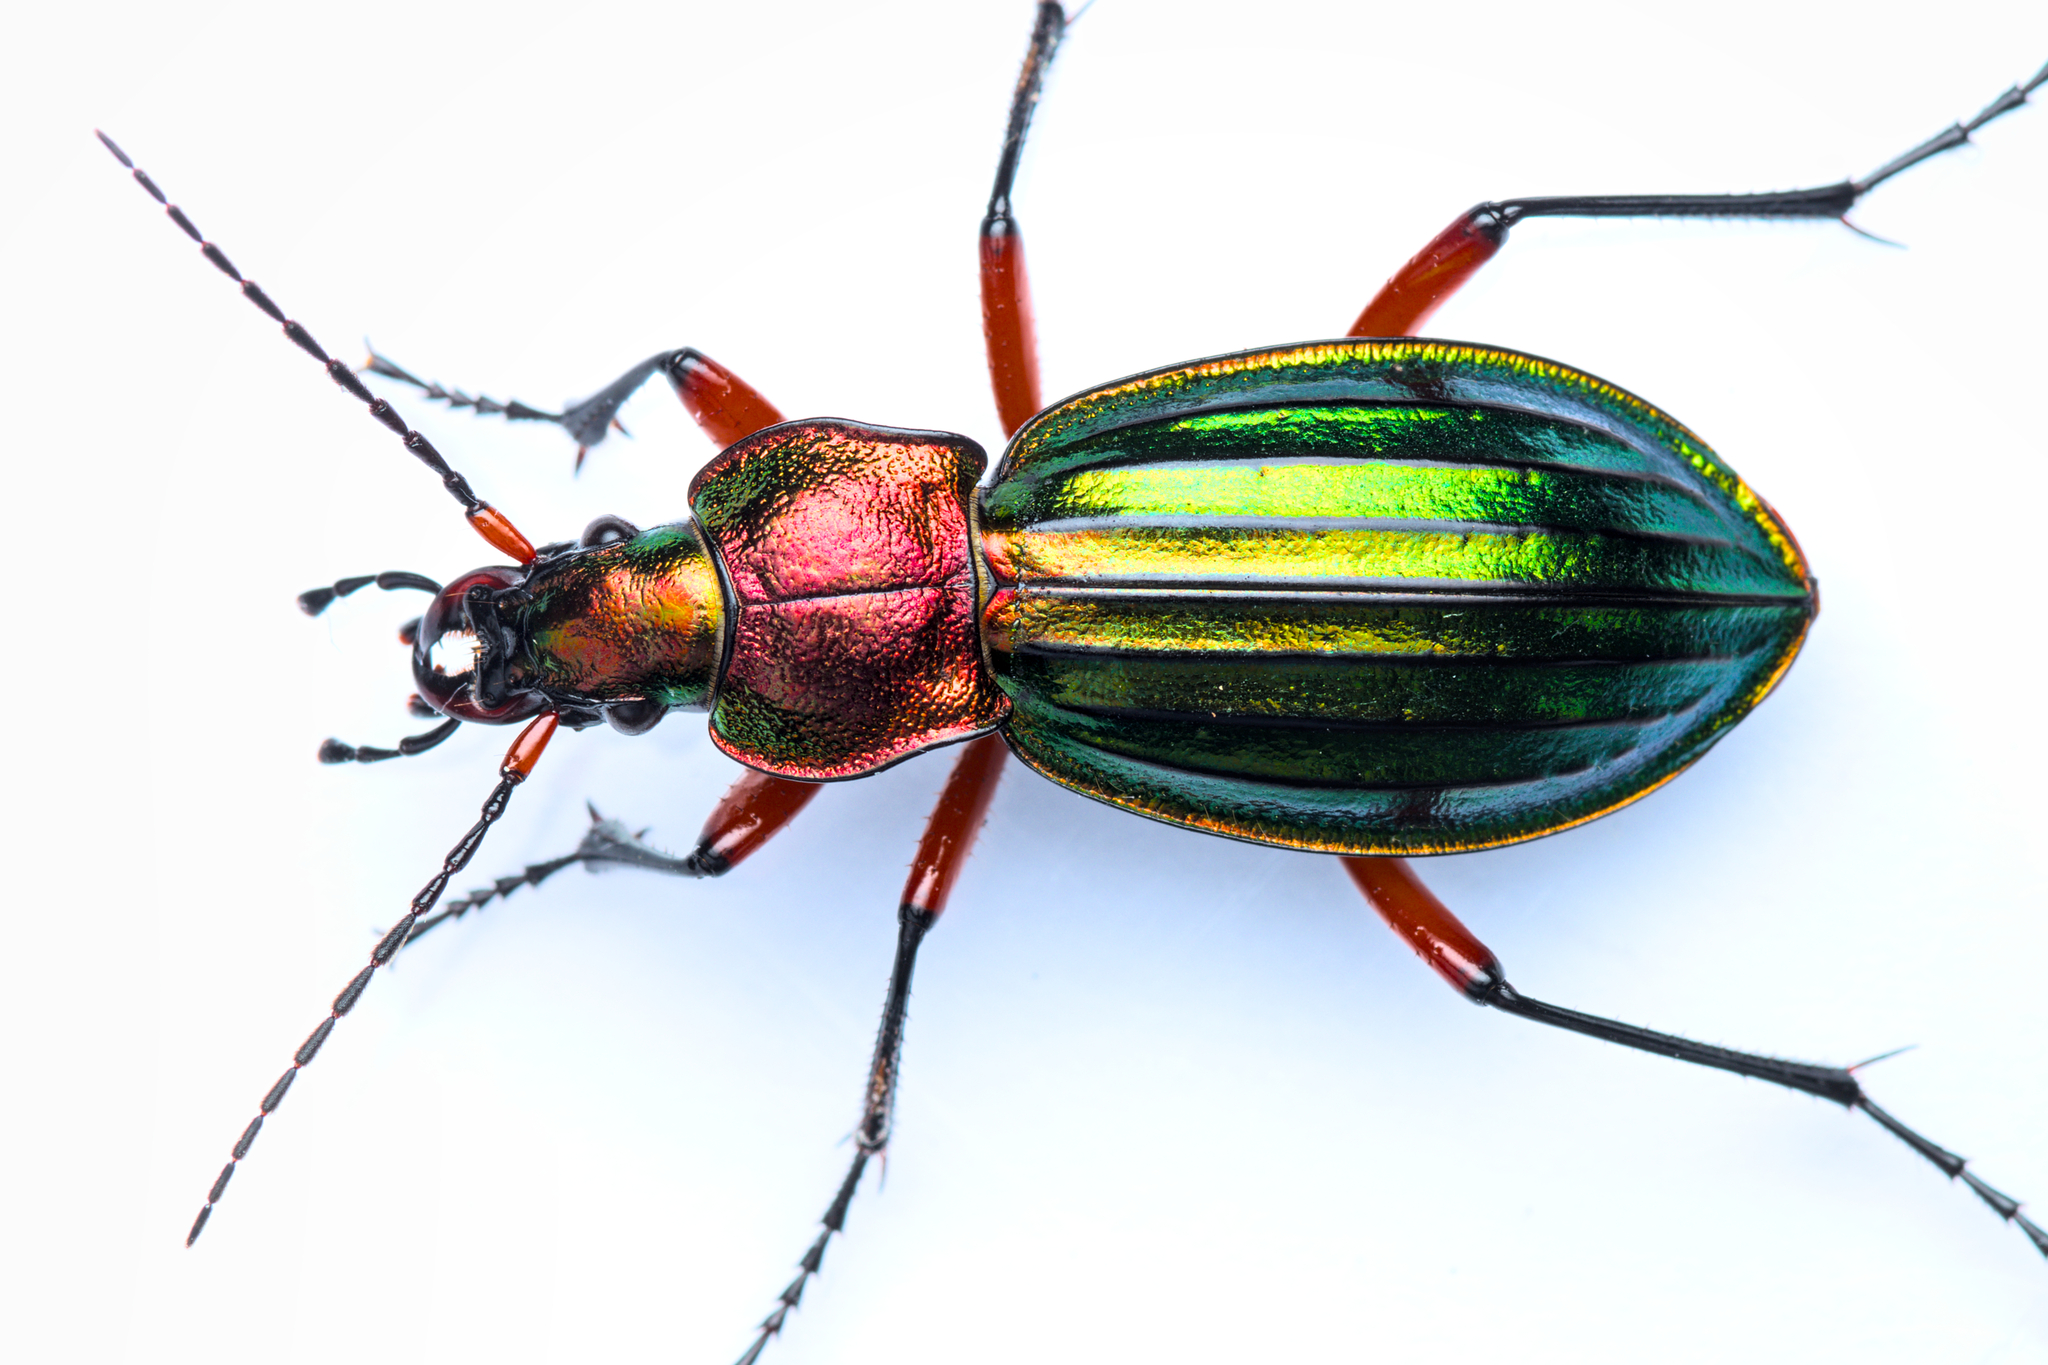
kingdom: Animalia
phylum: Arthropoda
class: Insecta
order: Coleoptera
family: Carabidae
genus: Carabus
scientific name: Carabus auronitens
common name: Carabus auronitens
